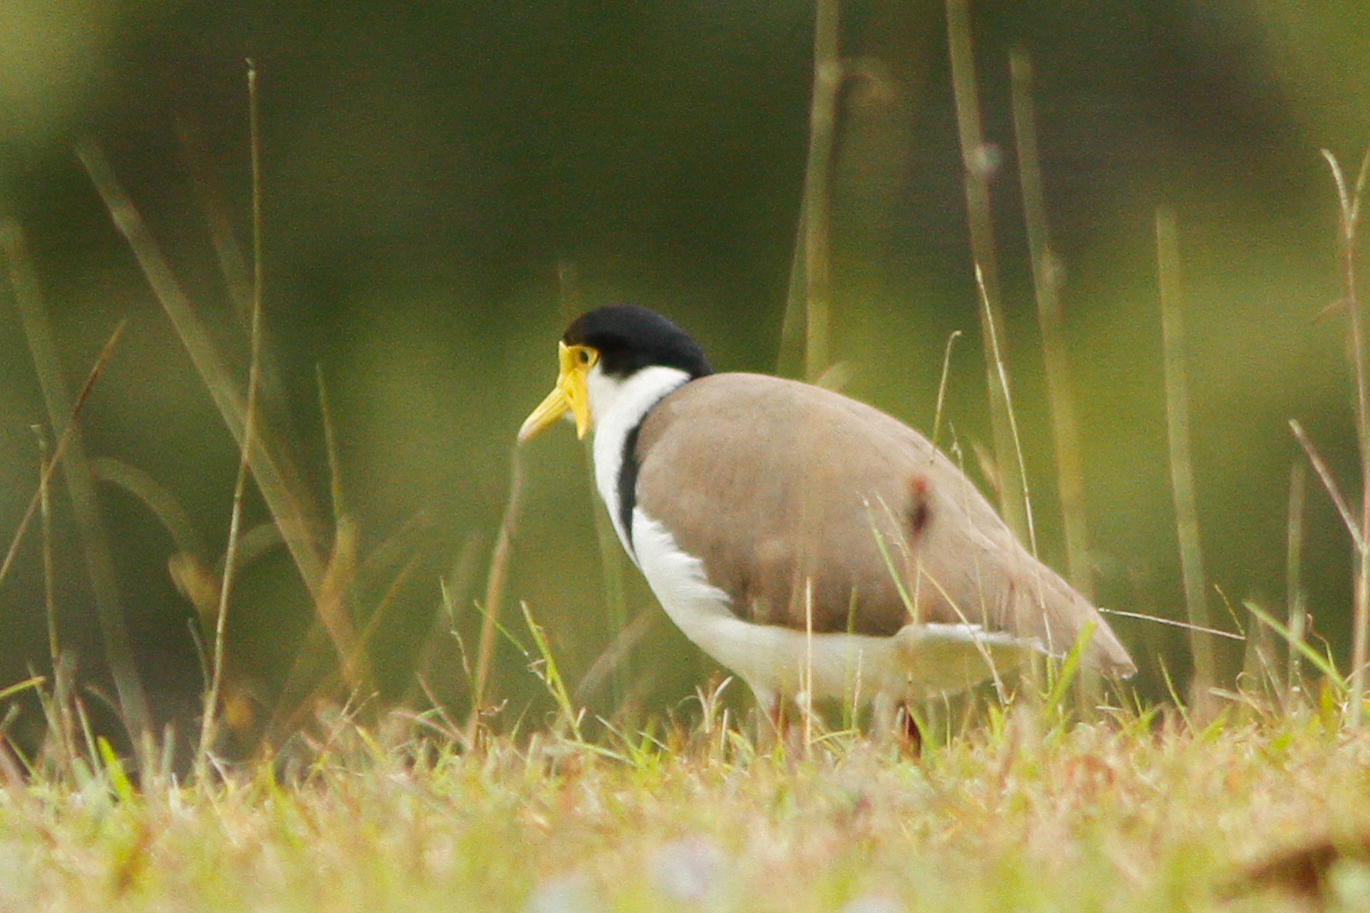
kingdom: Animalia
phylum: Chordata
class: Aves
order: Charadriiformes
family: Charadriidae
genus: Vanellus
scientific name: Vanellus miles
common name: Masked lapwing
